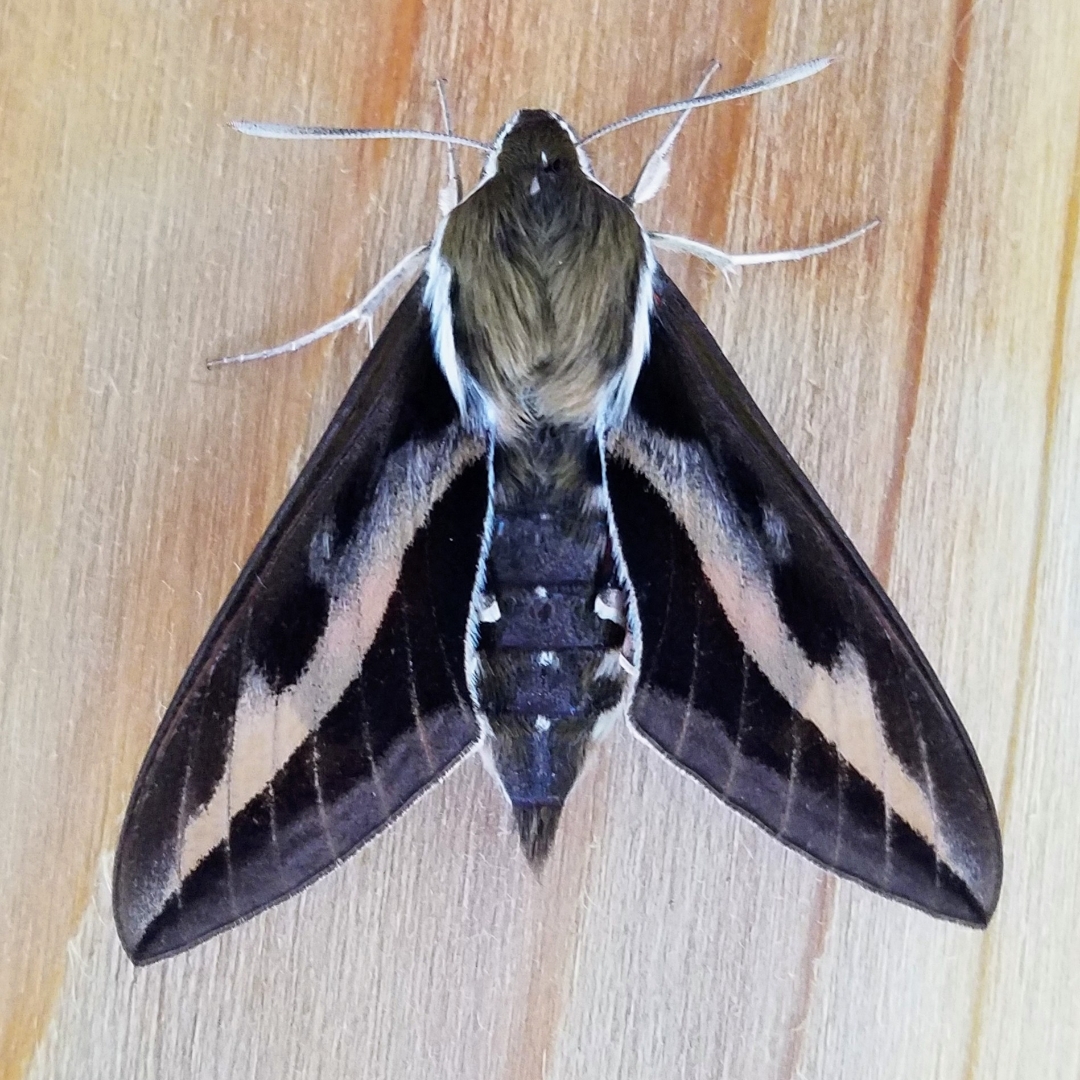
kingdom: Animalia
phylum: Arthropoda
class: Insecta
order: Lepidoptera
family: Sphingidae
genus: Hyles
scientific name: Hyles gallii
